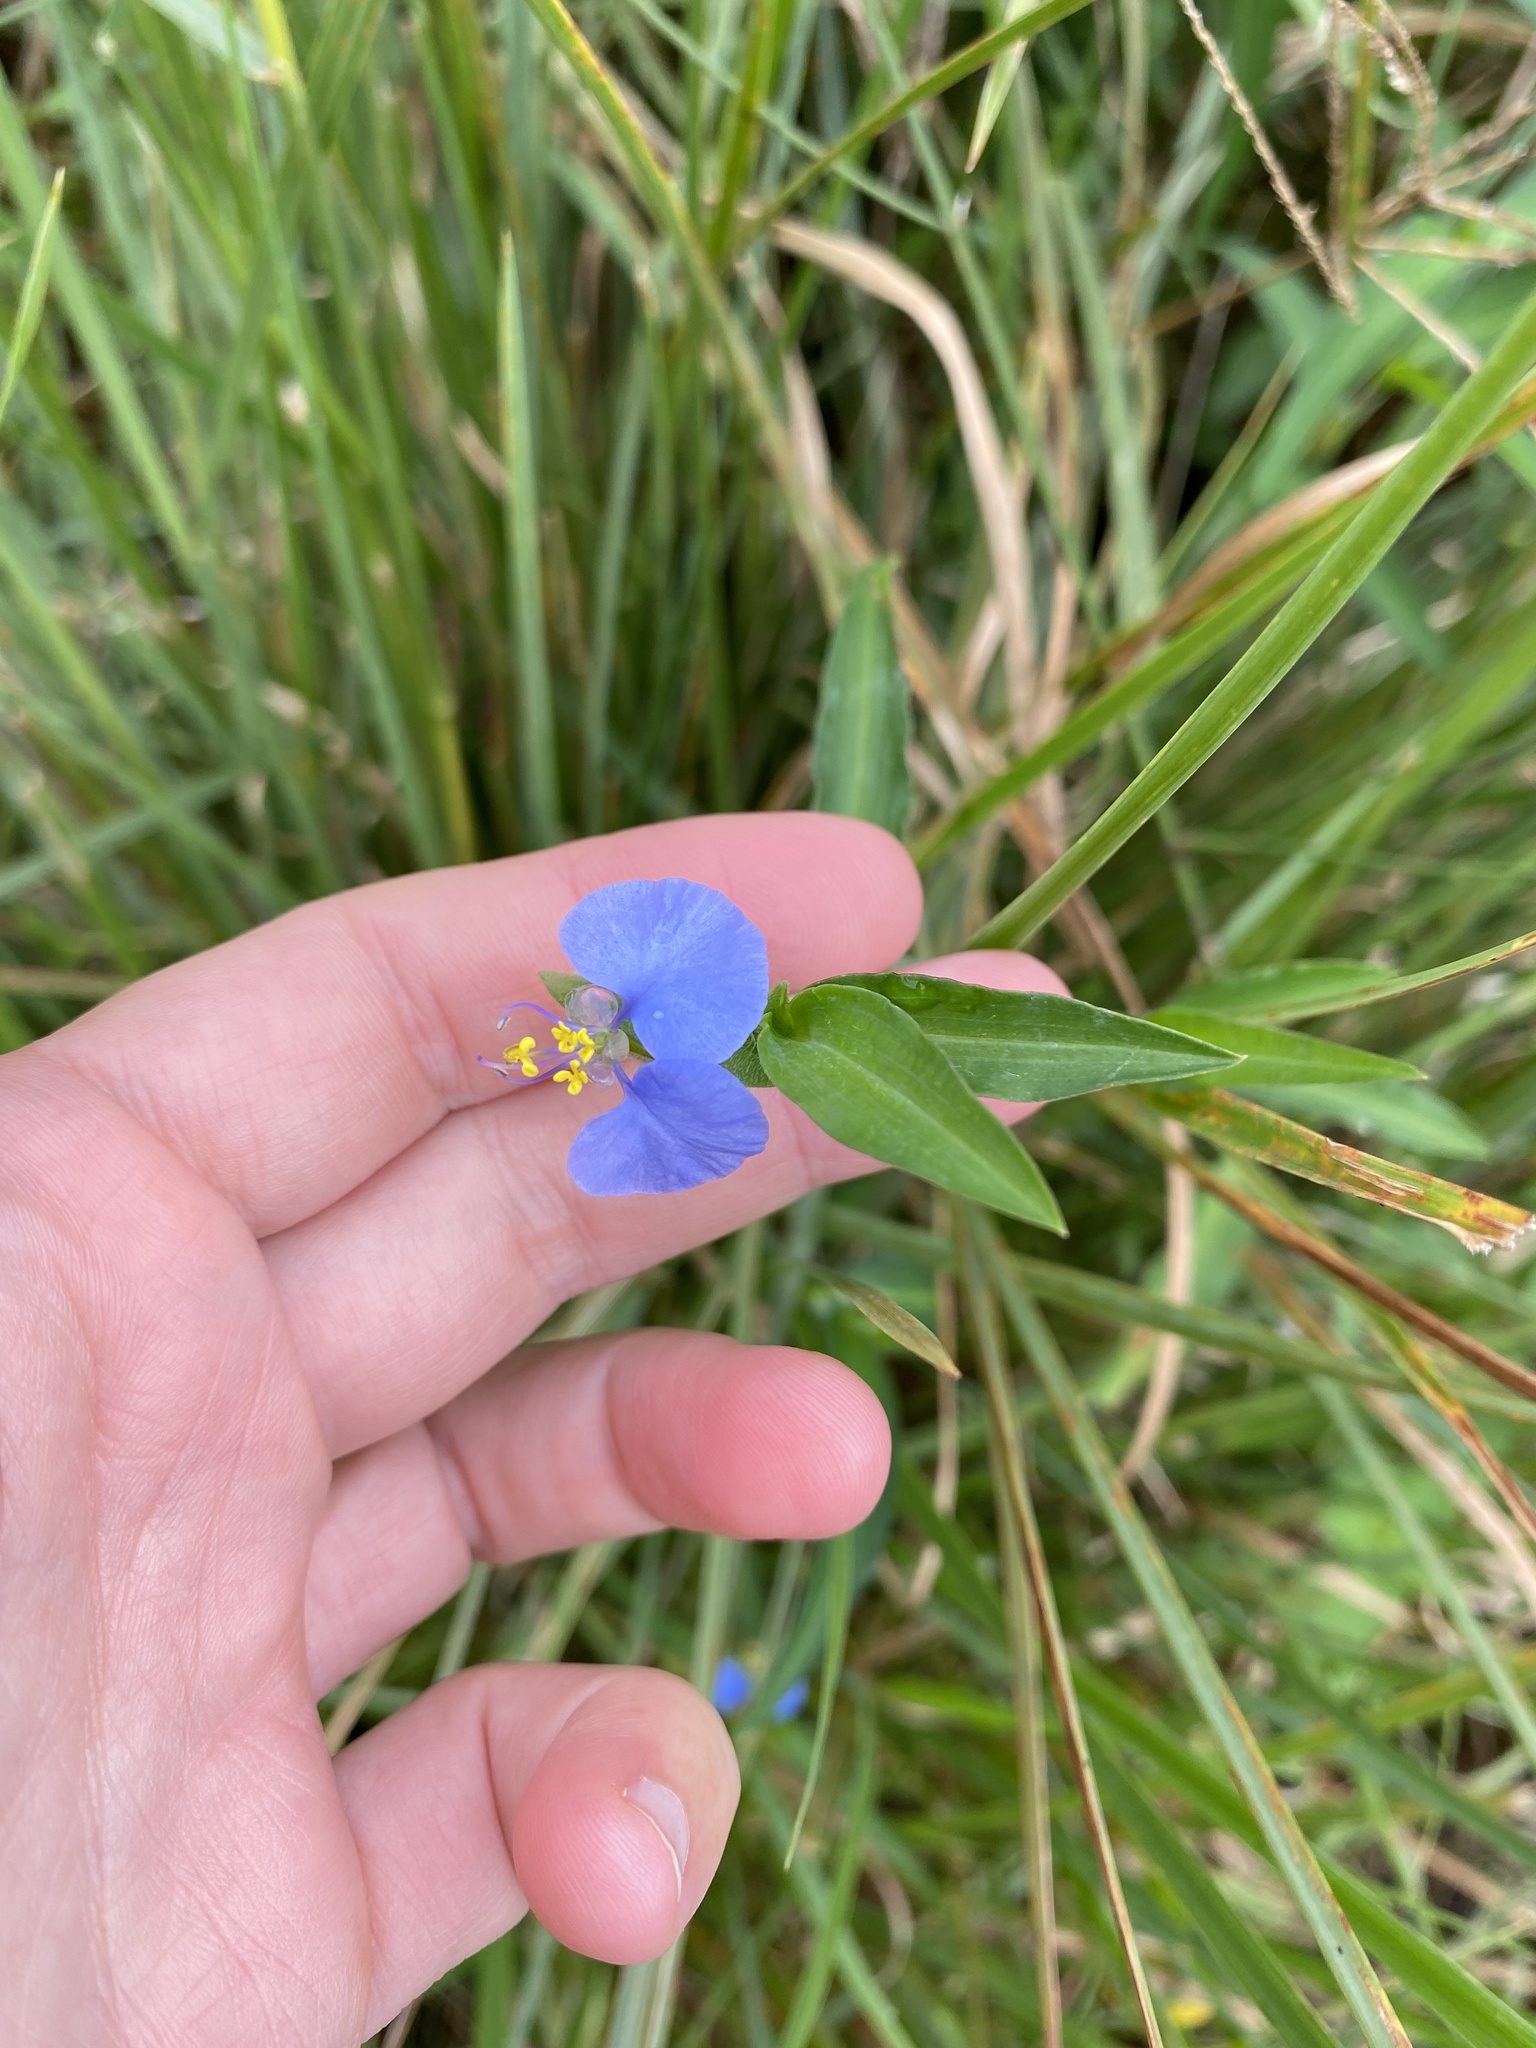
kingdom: Plantae
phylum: Tracheophyta
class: Liliopsida
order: Commelinales
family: Commelinaceae
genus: Commelina
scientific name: Commelina erecta
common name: Blousel blommetjie
